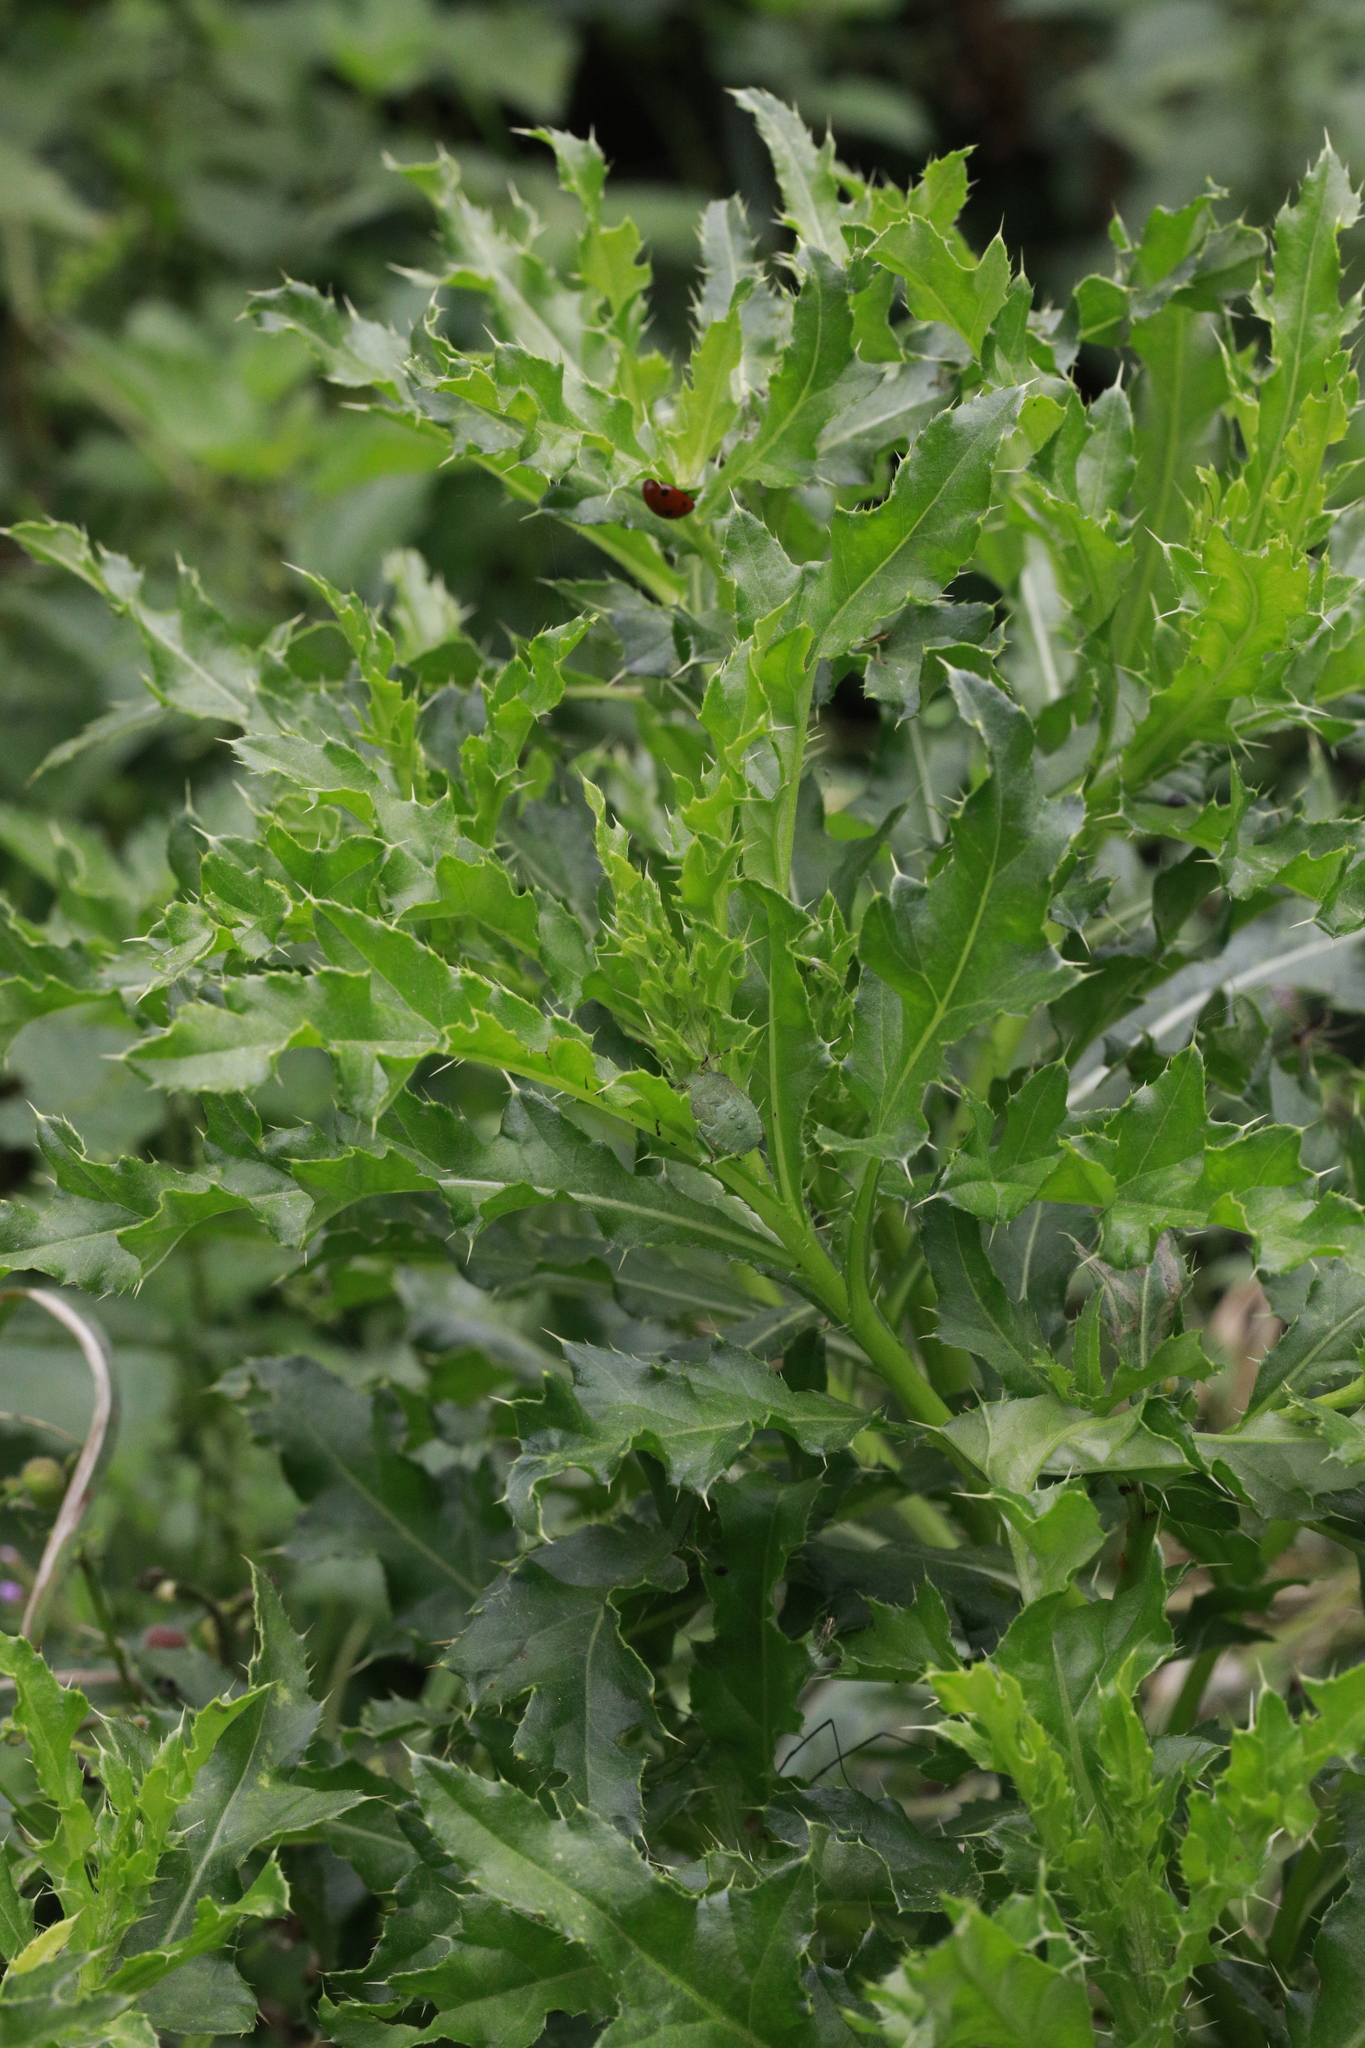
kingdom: Plantae
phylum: Tracheophyta
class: Magnoliopsida
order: Asterales
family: Asteraceae
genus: Cirsium
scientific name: Cirsium arvense
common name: Creeping thistle
